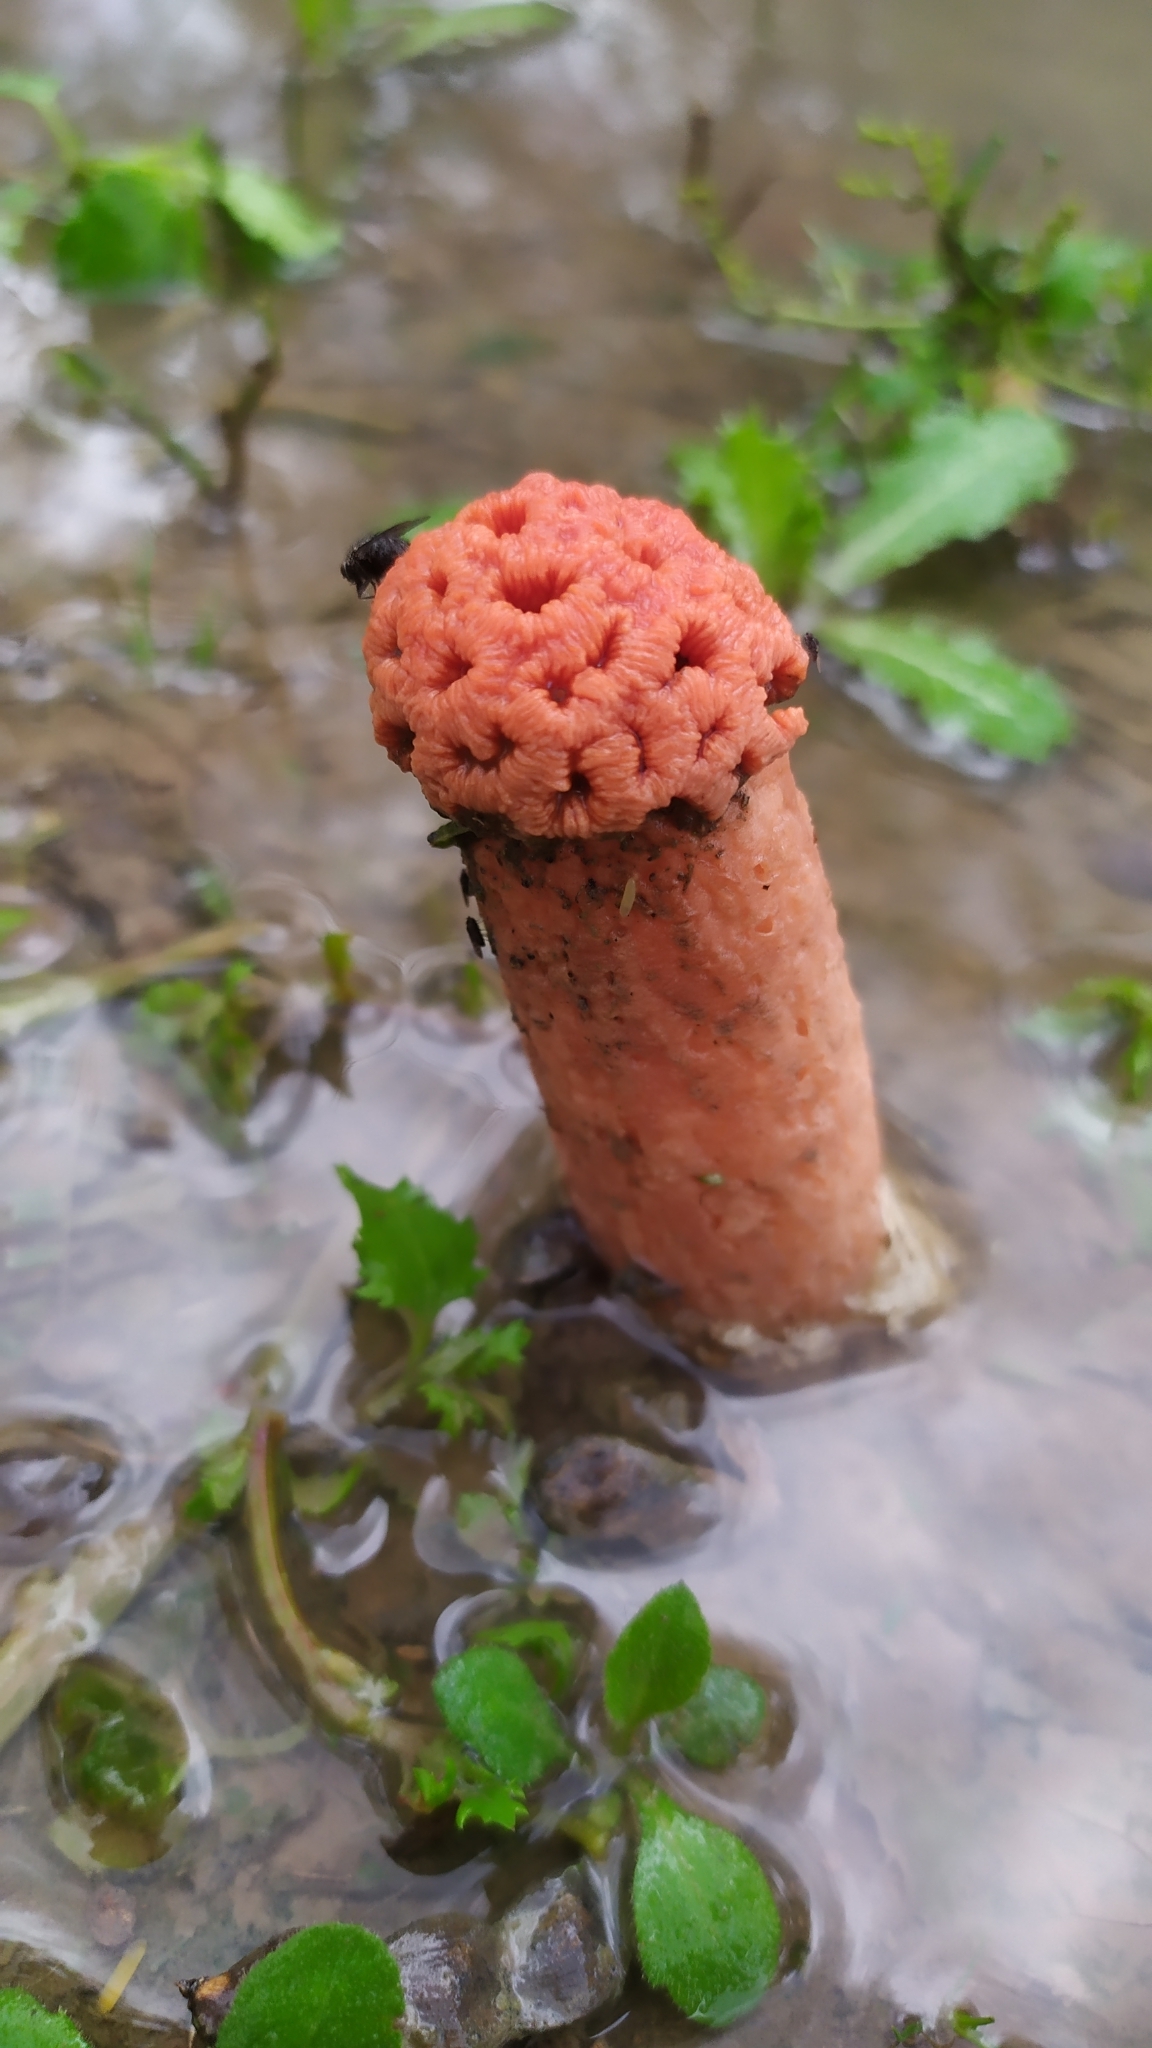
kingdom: Fungi
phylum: Basidiomycota
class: Agaricomycetes
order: Phallales
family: Phallaceae
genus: Lysurus
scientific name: Lysurus periphragmoides
